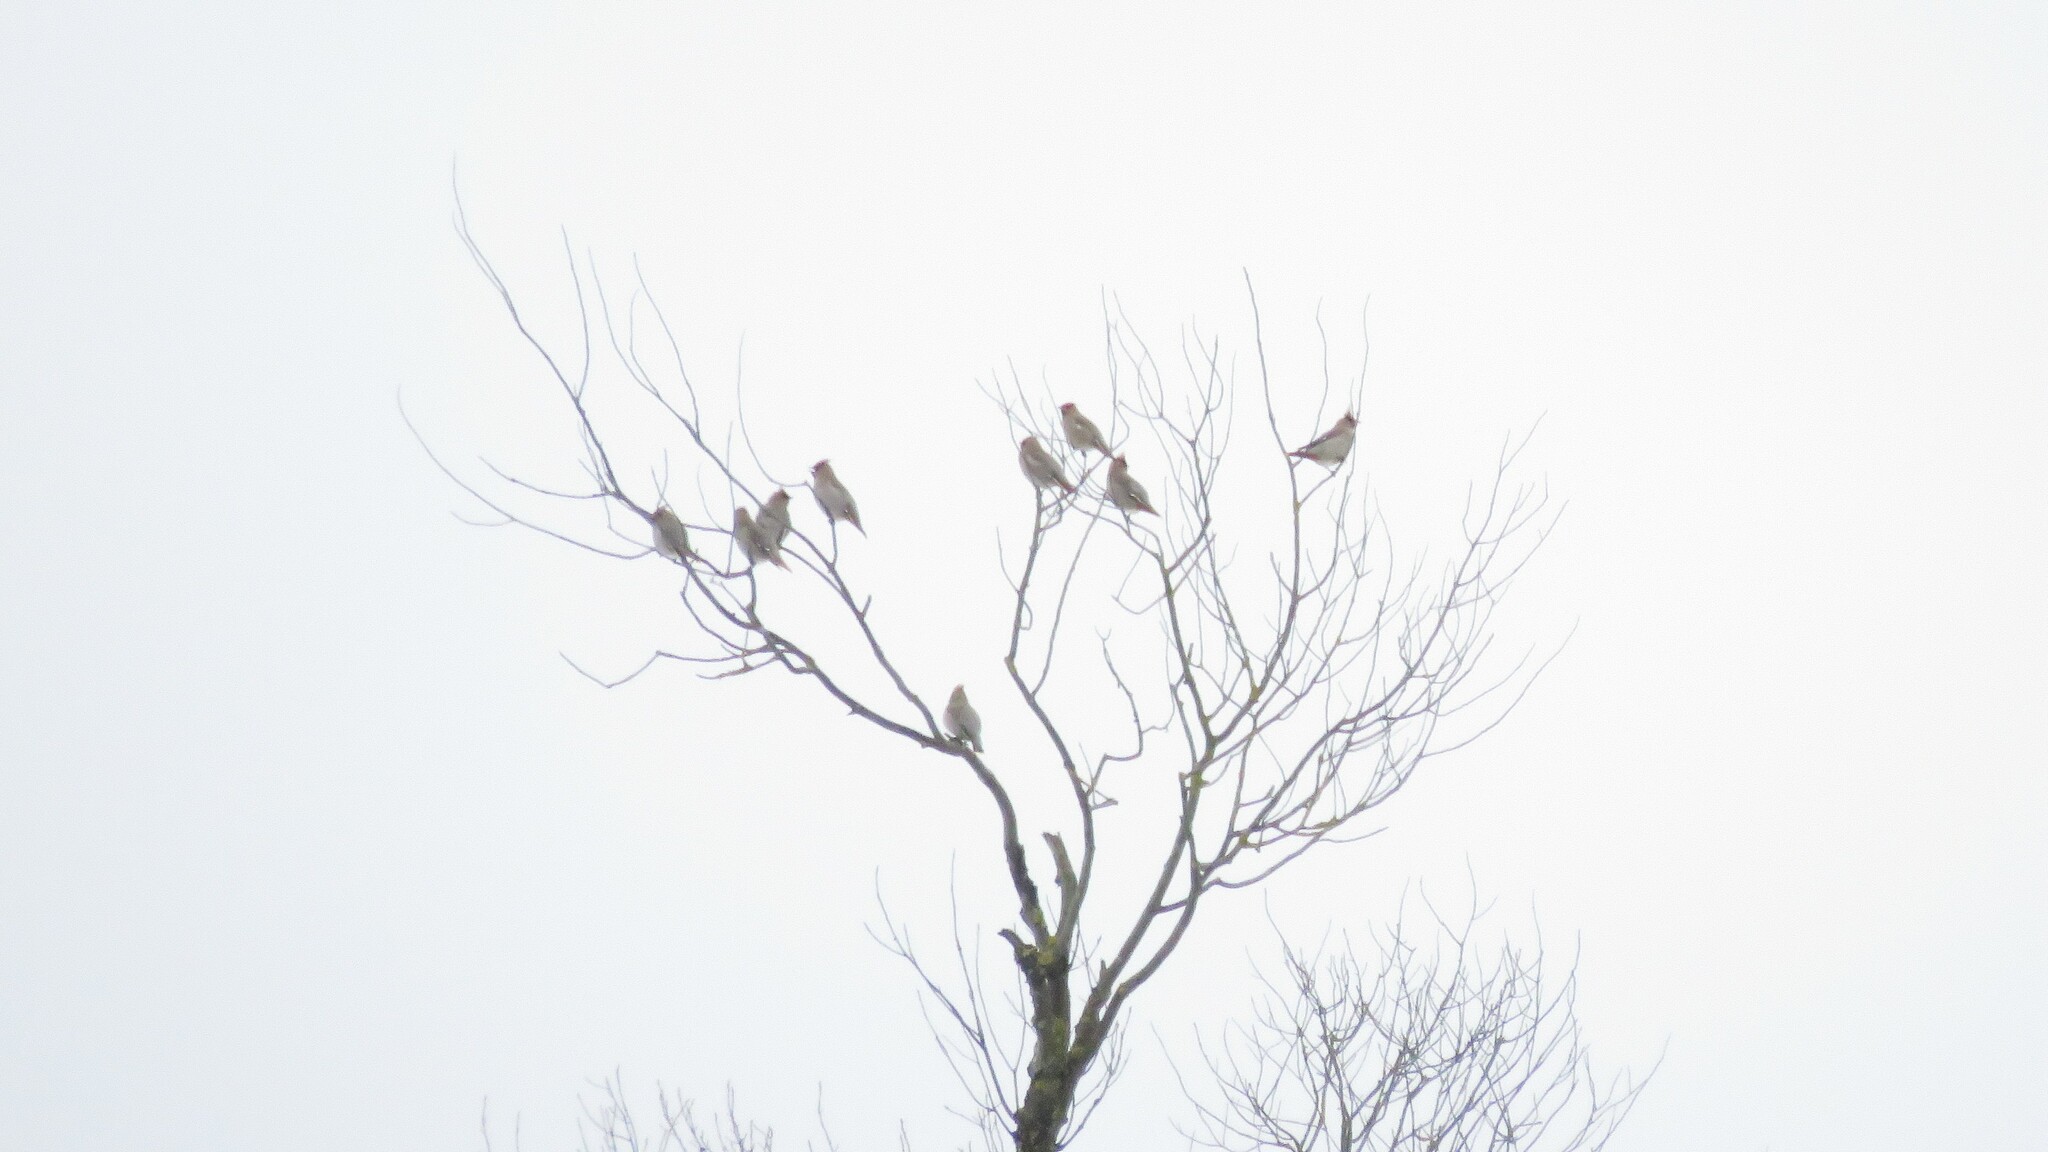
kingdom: Animalia
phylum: Chordata
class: Aves
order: Passeriformes
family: Bombycillidae
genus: Bombycilla
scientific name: Bombycilla garrulus
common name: Bohemian waxwing
